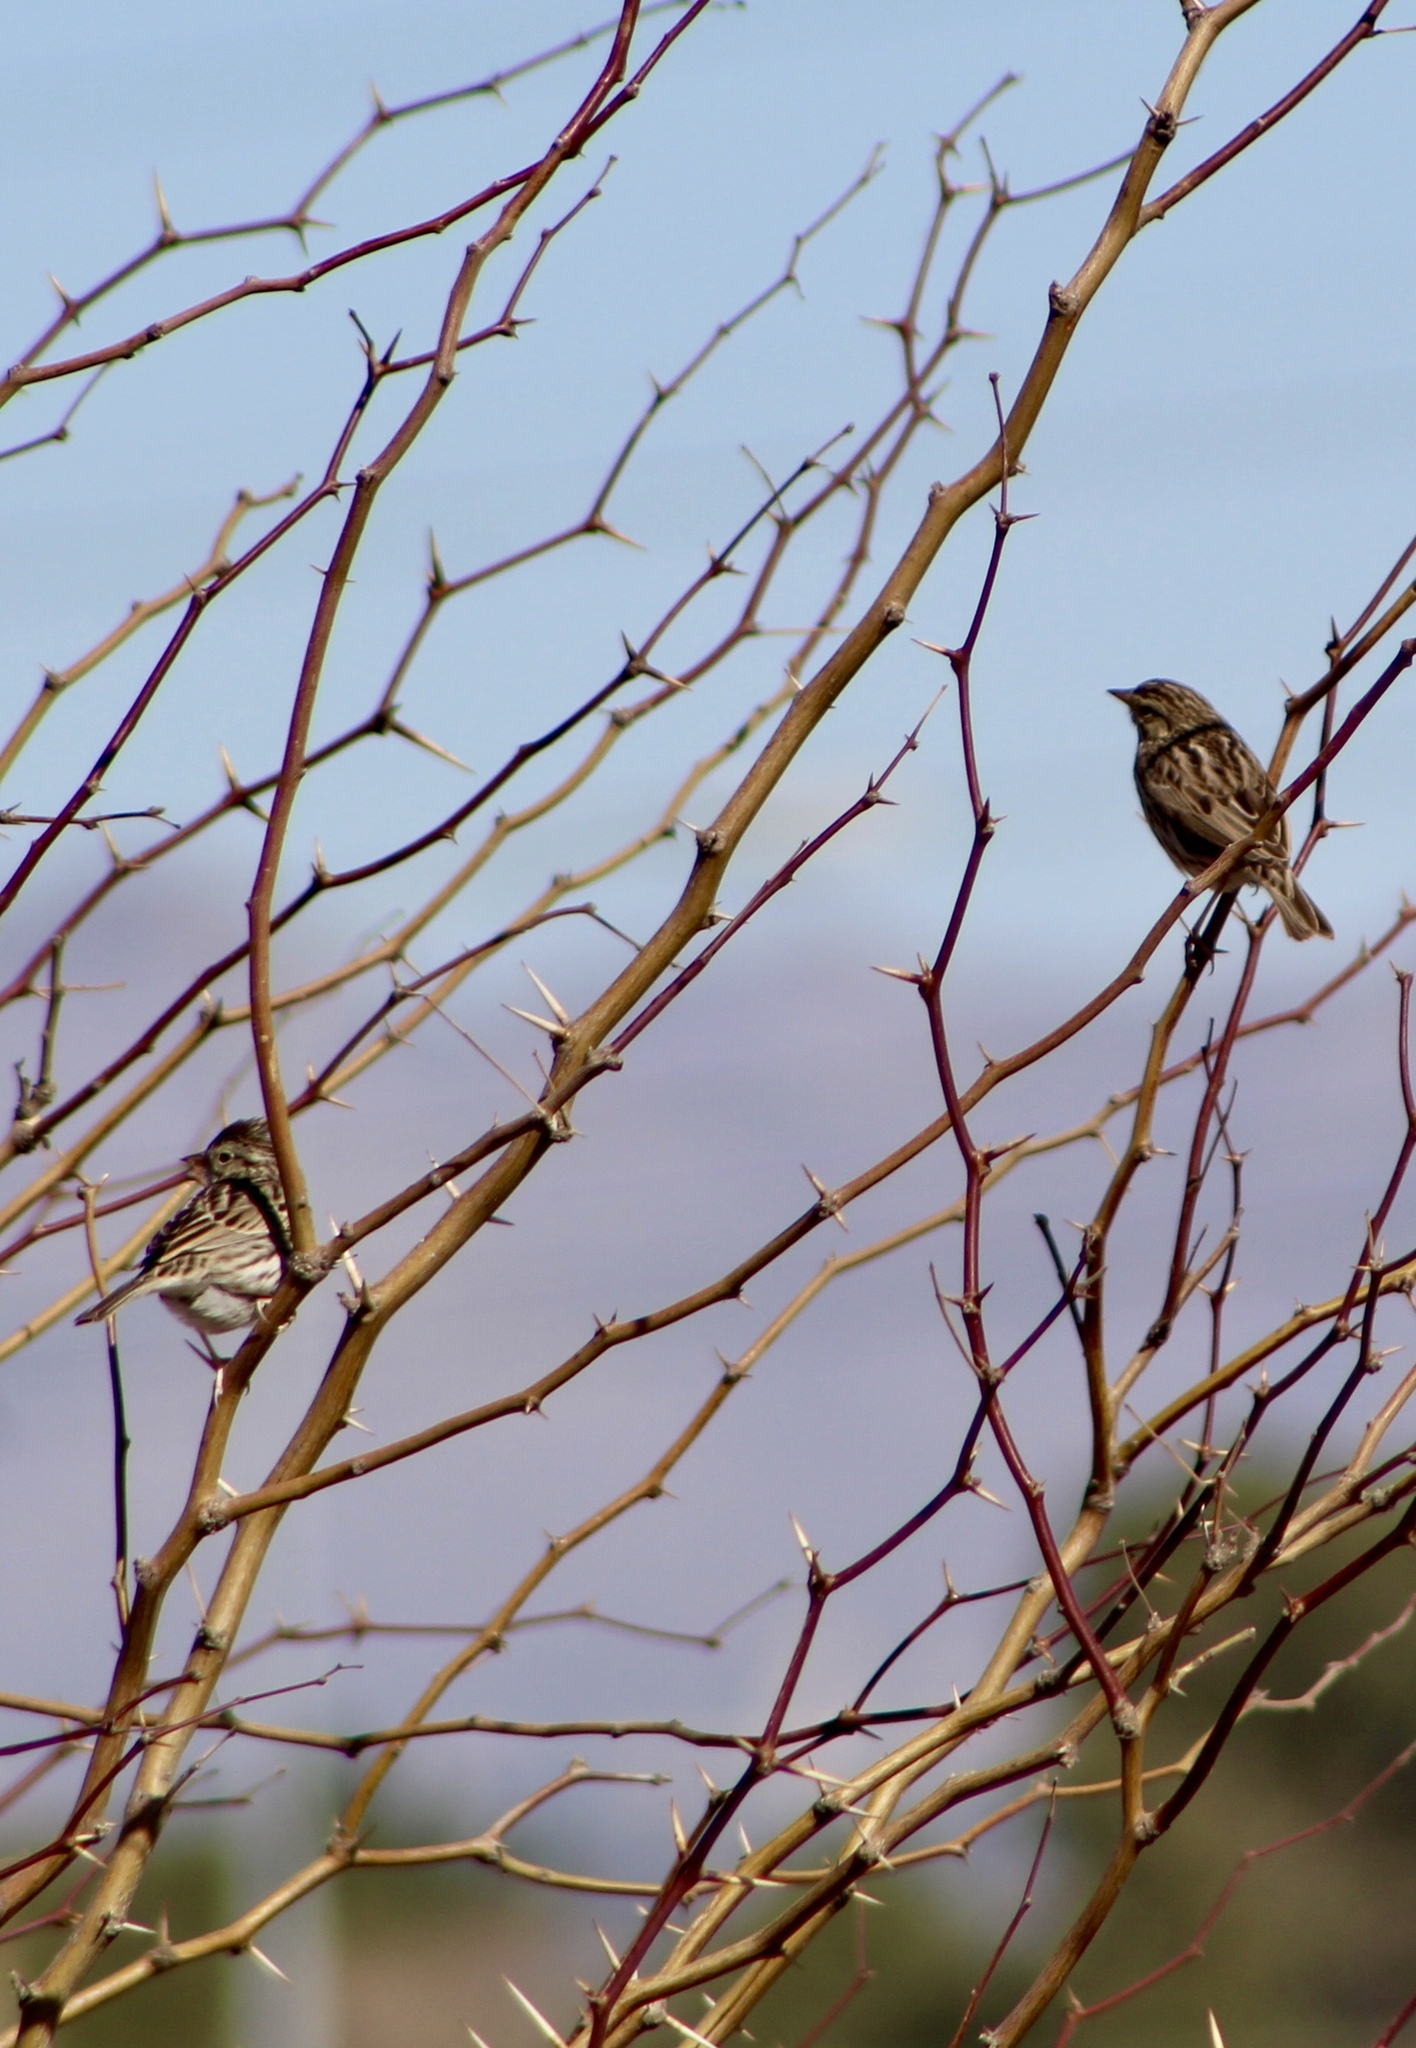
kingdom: Animalia
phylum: Chordata
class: Aves
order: Passeriformes
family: Passerellidae
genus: Passerculus
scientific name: Passerculus sandwichensis
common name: Savannah sparrow
